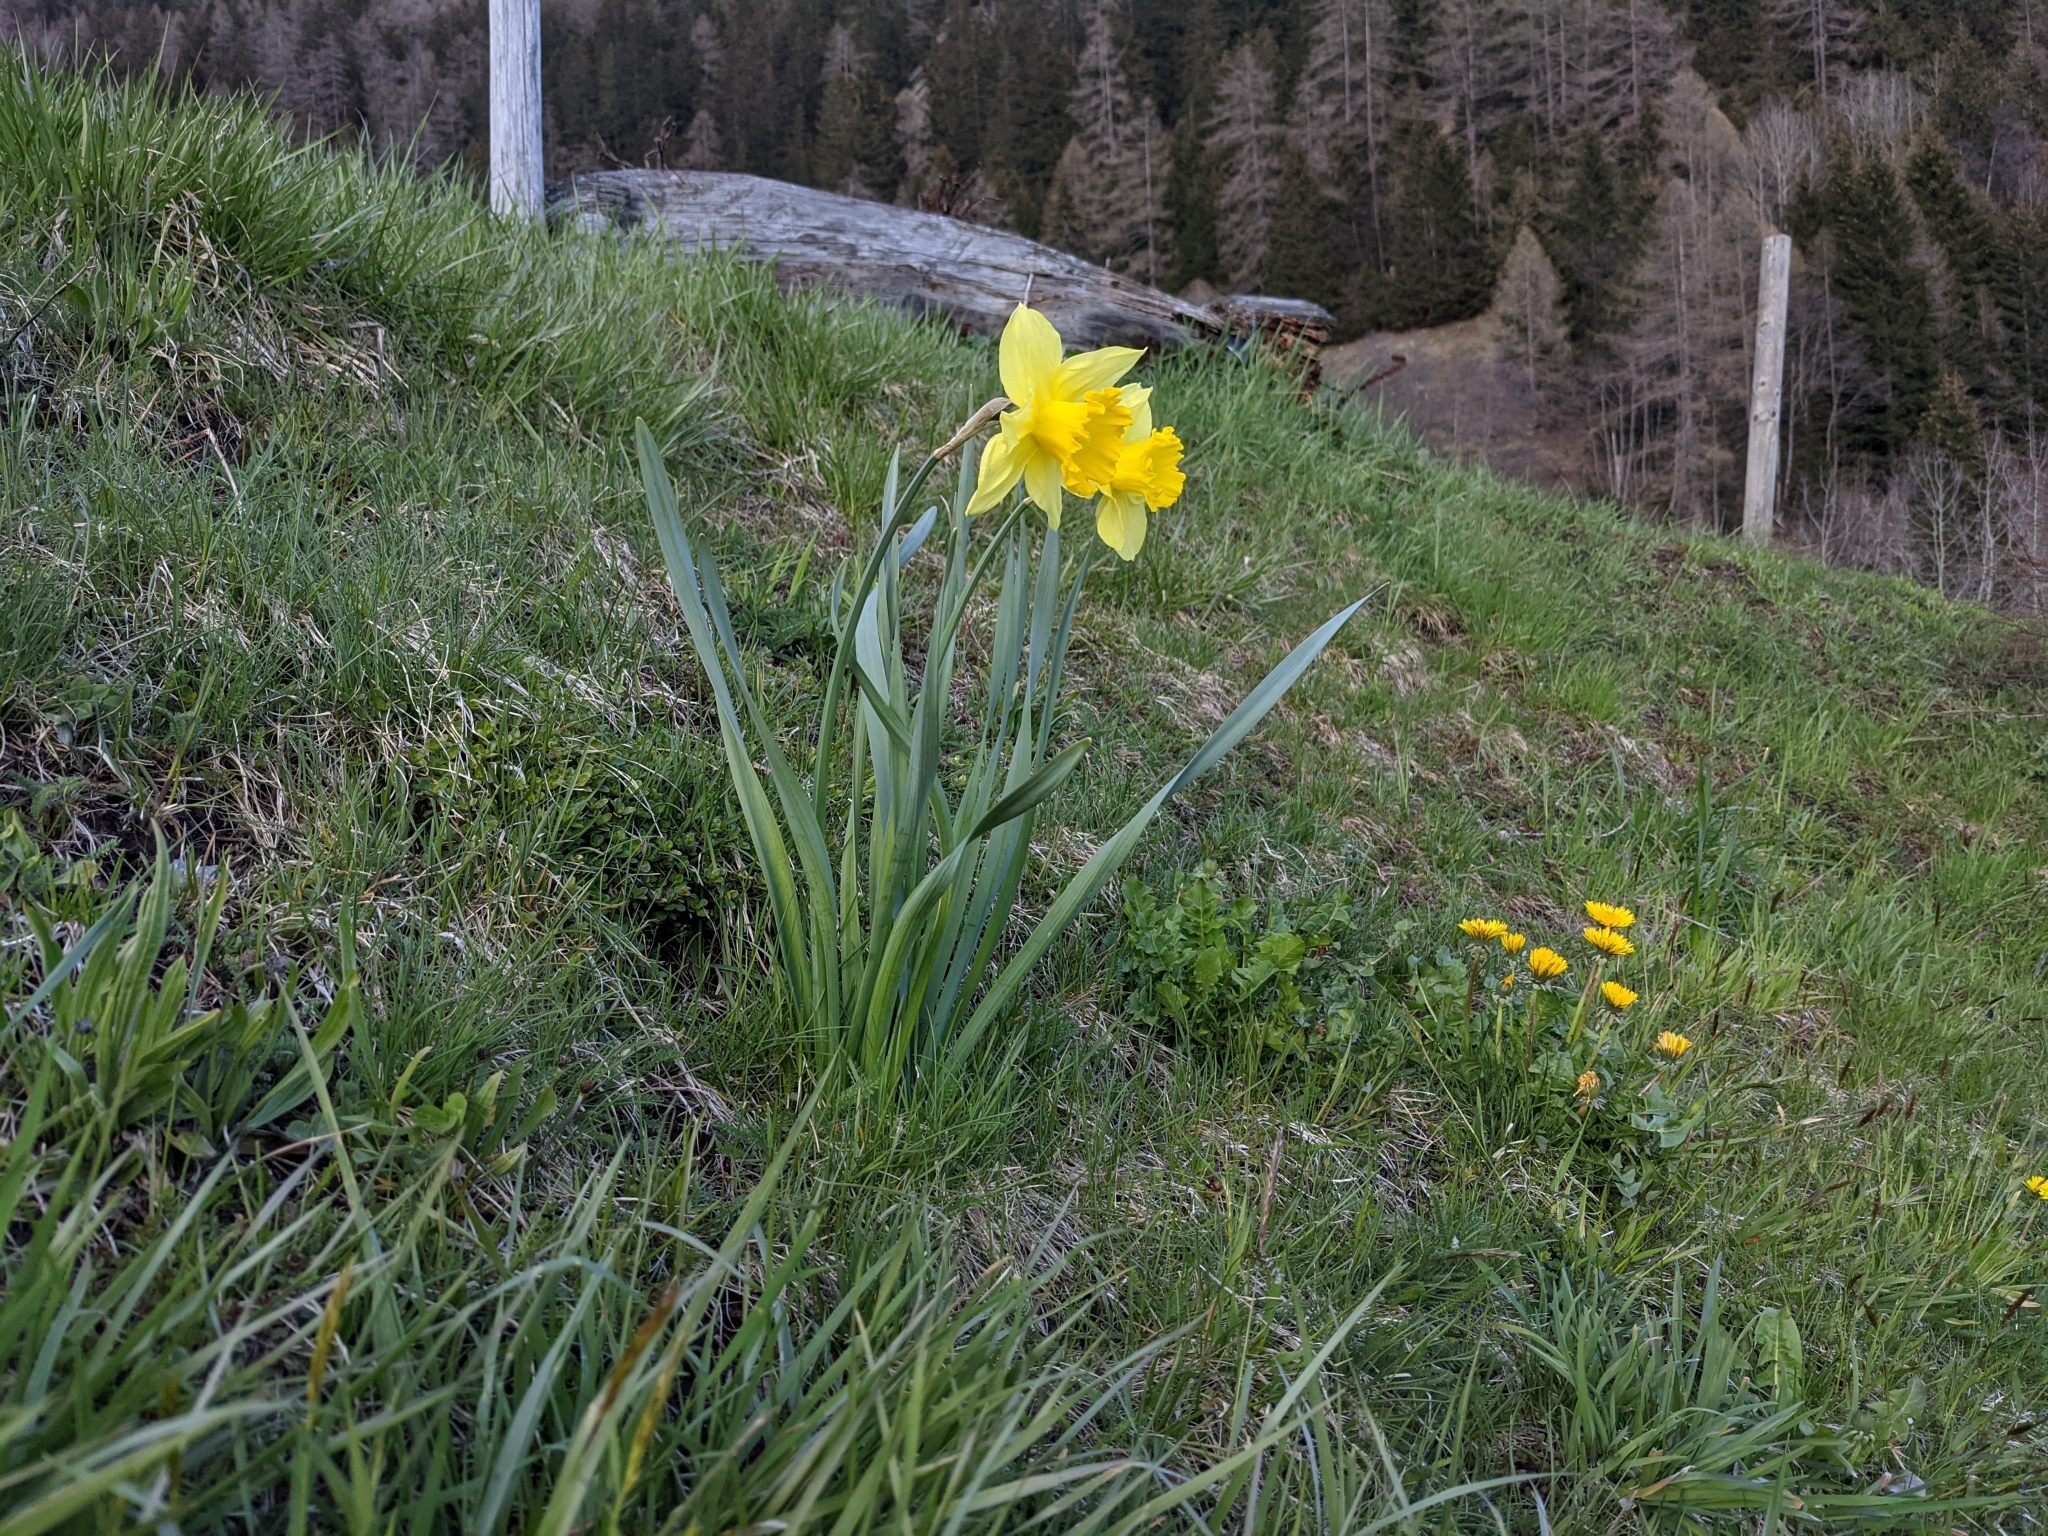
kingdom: Plantae
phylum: Tracheophyta
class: Liliopsida
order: Asparagales
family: Amaryllidaceae
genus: Narcissus
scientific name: Narcissus pseudonarcissus
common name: Daffodil
